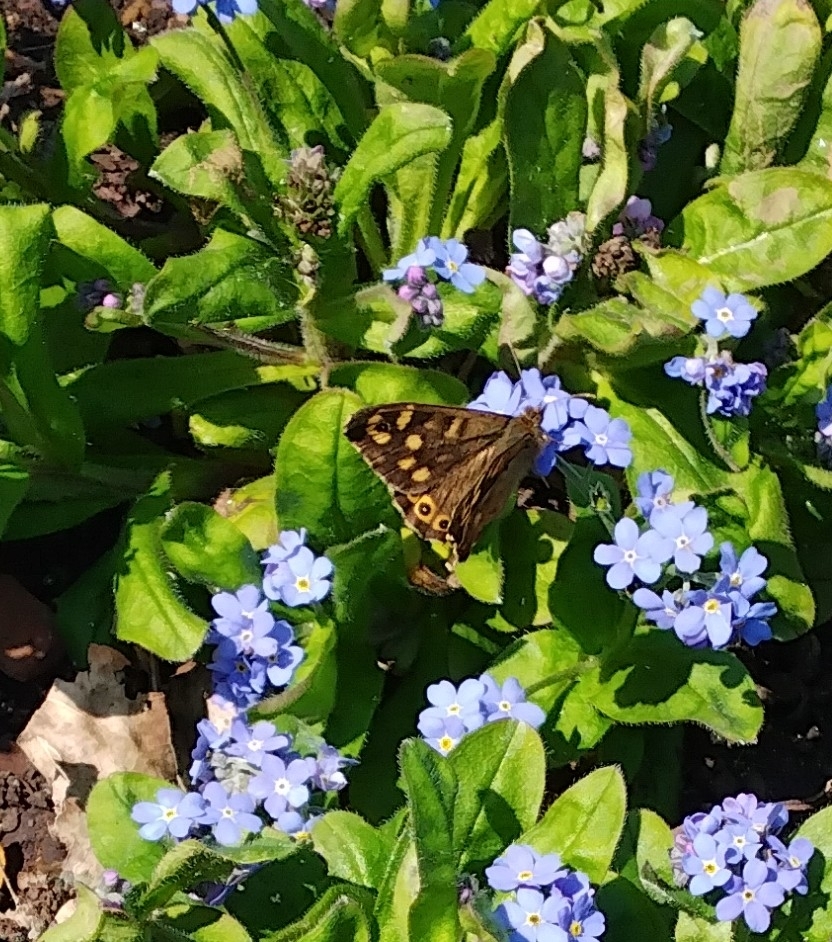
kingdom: Animalia
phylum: Arthropoda
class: Insecta
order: Lepidoptera
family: Nymphalidae
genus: Pararge
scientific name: Pararge aegeria
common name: Speckled wood
